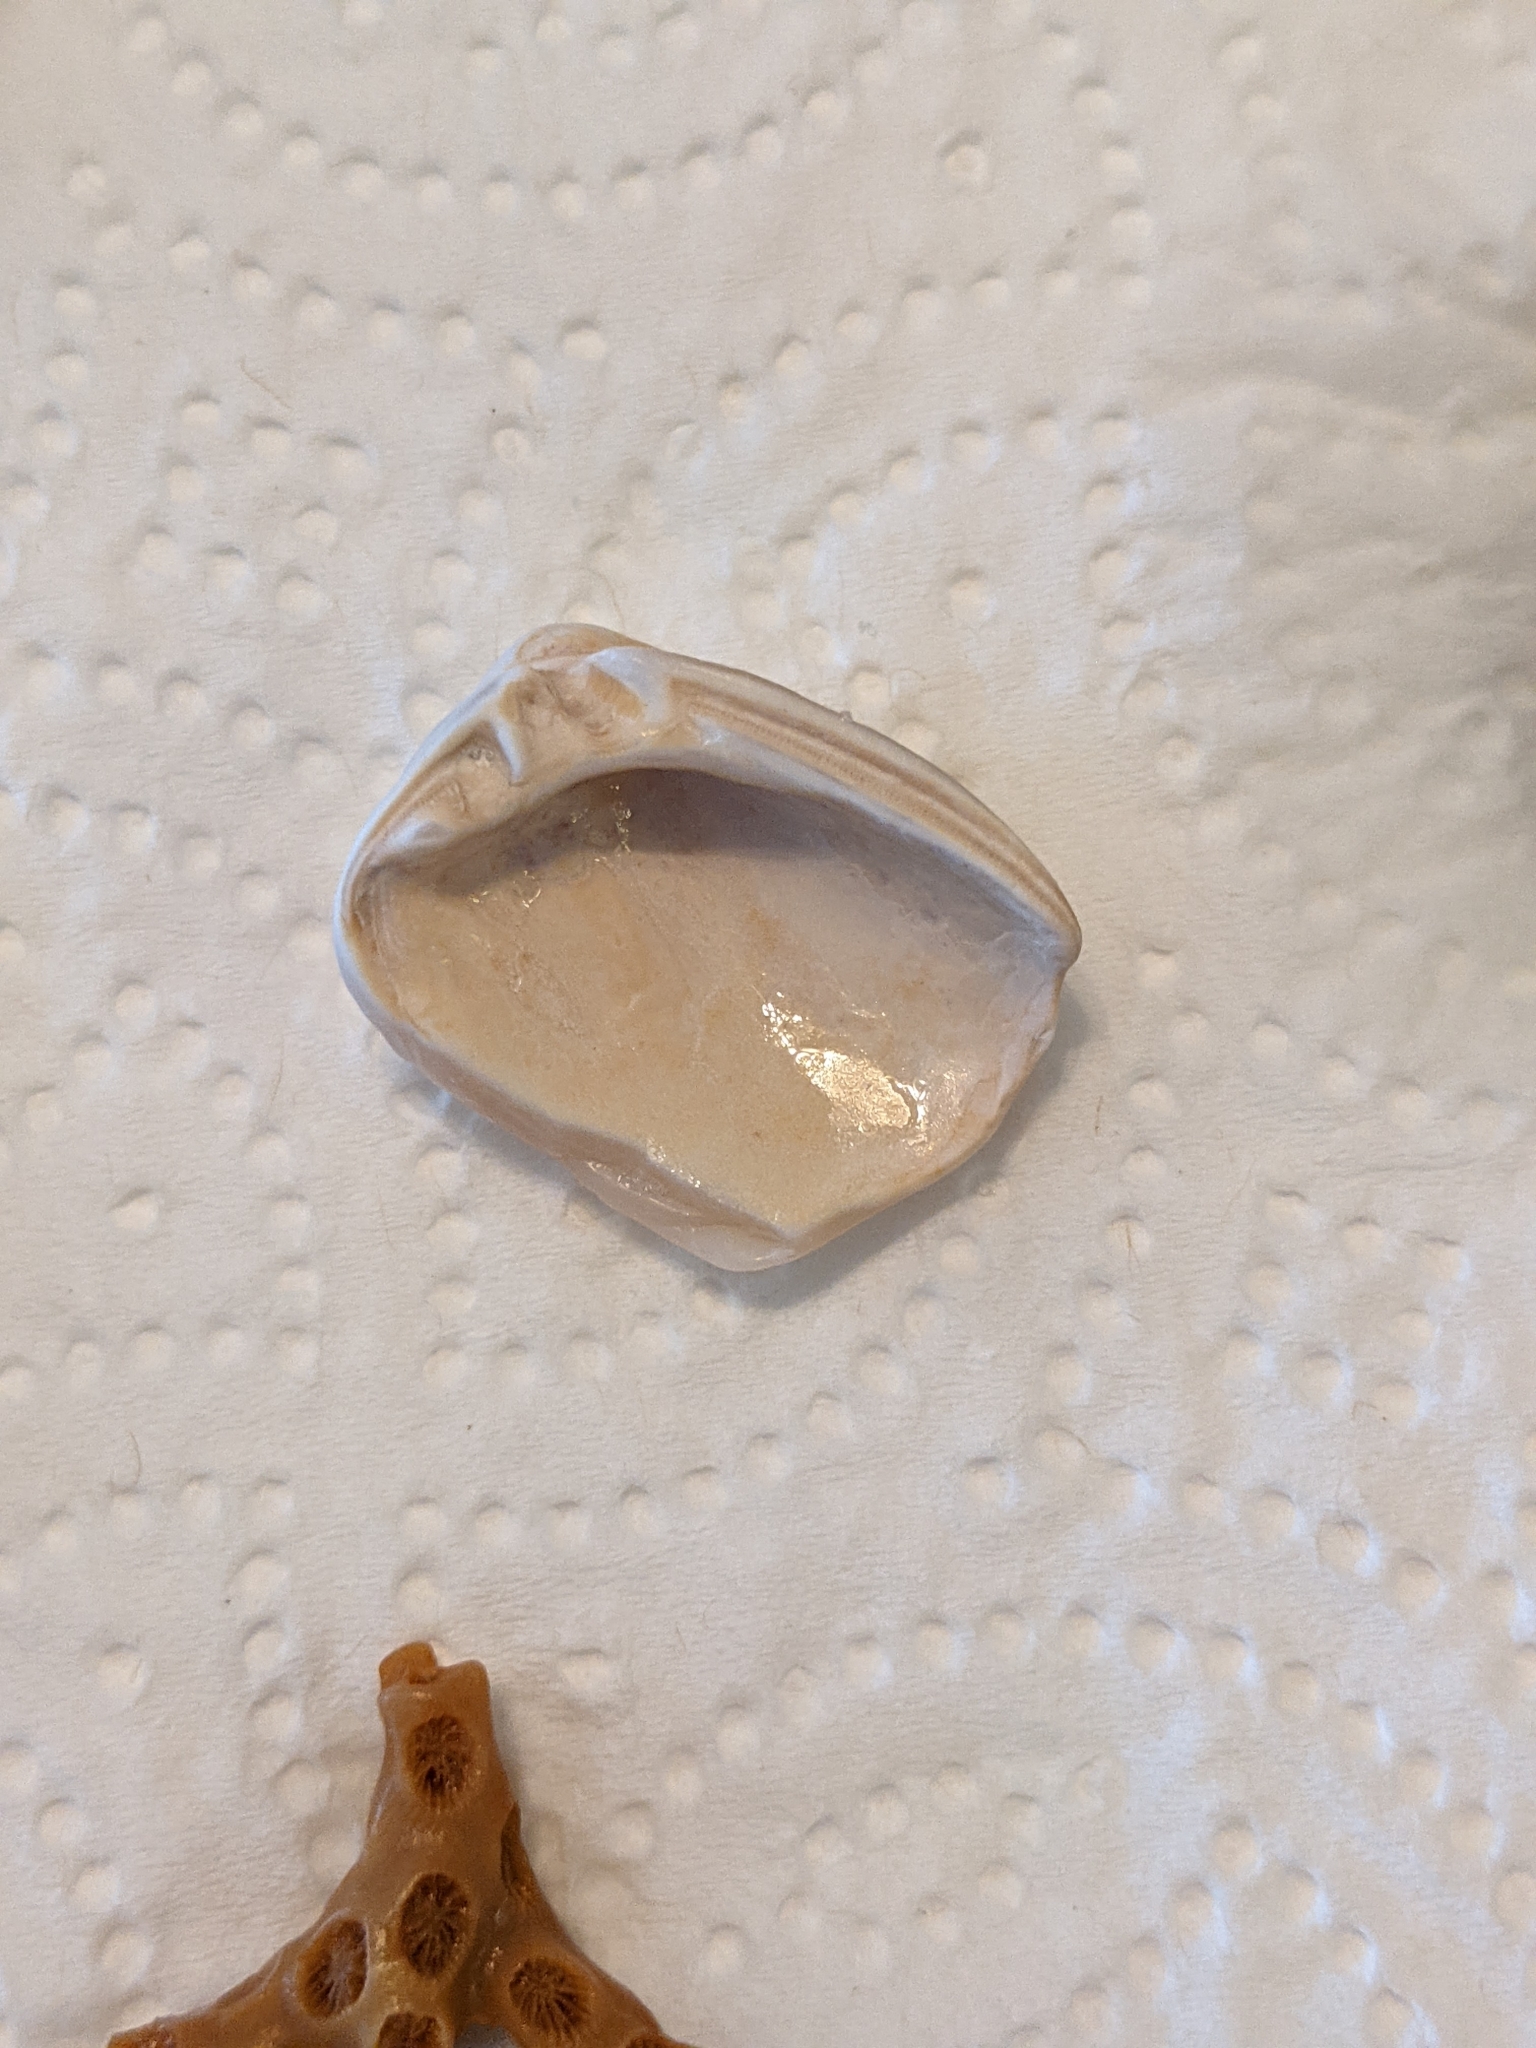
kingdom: Animalia
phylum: Mollusca
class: Bivalvia
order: Venerida
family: Mactridae
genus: Rangia
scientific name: Rangia cuneata
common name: Atlantic rangia
